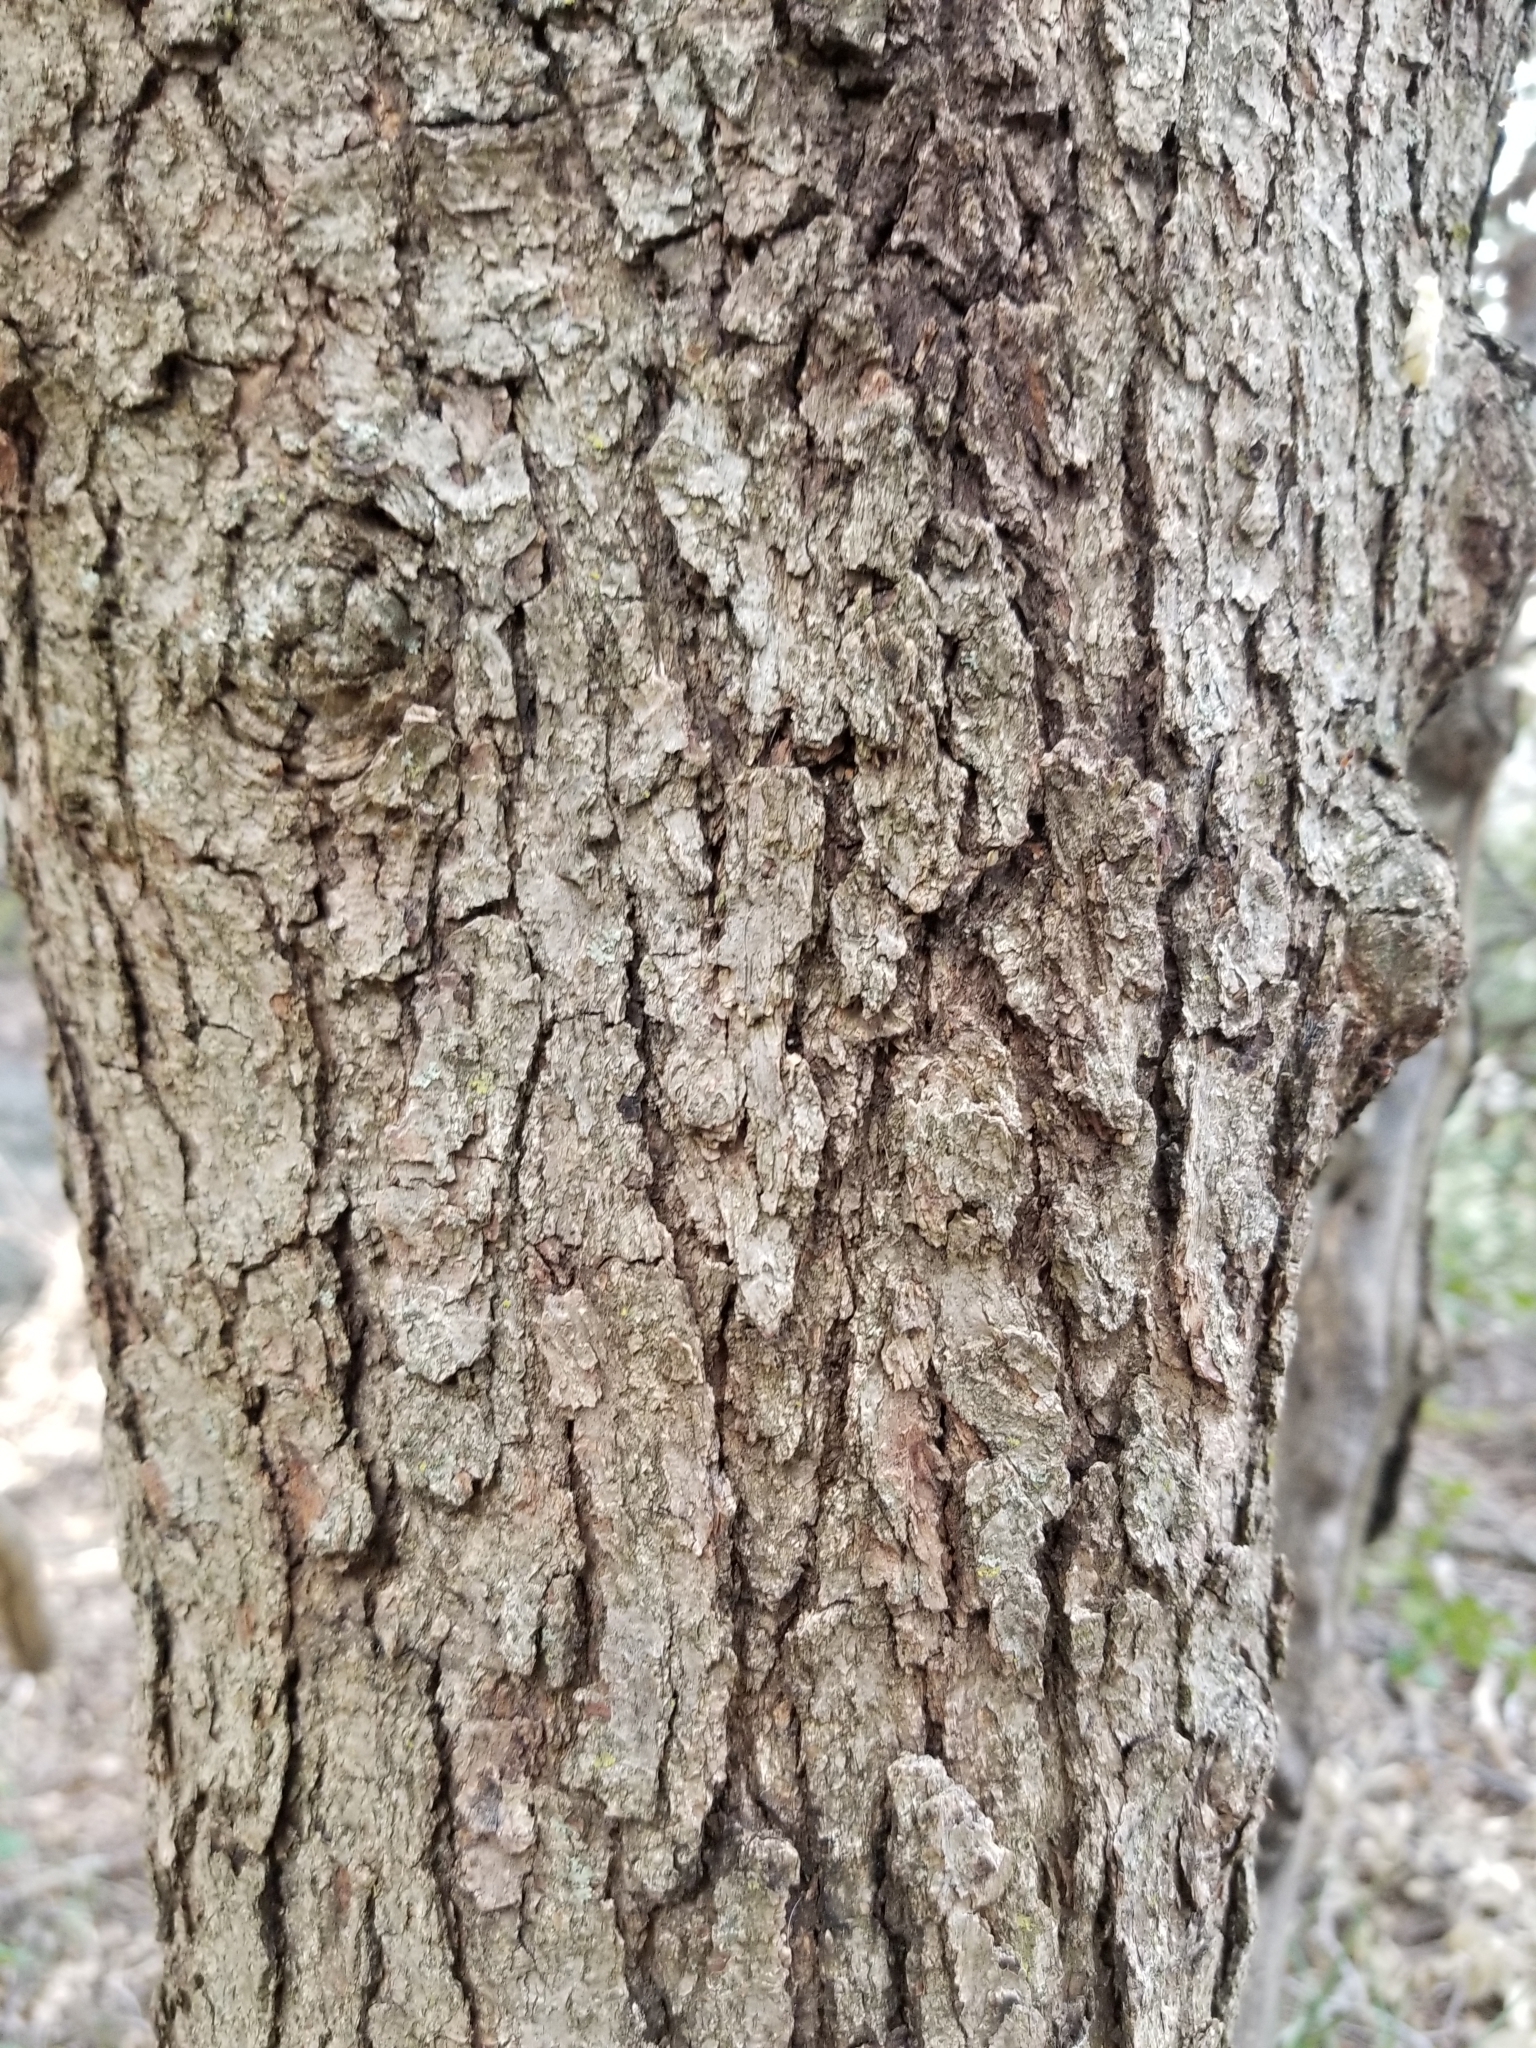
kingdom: Plantae
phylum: Tracheophyta
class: Magnoliopsida
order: Fagales
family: Fagaceae
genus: Quercus
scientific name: Quercus chrysolepis
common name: Canyon live oak
